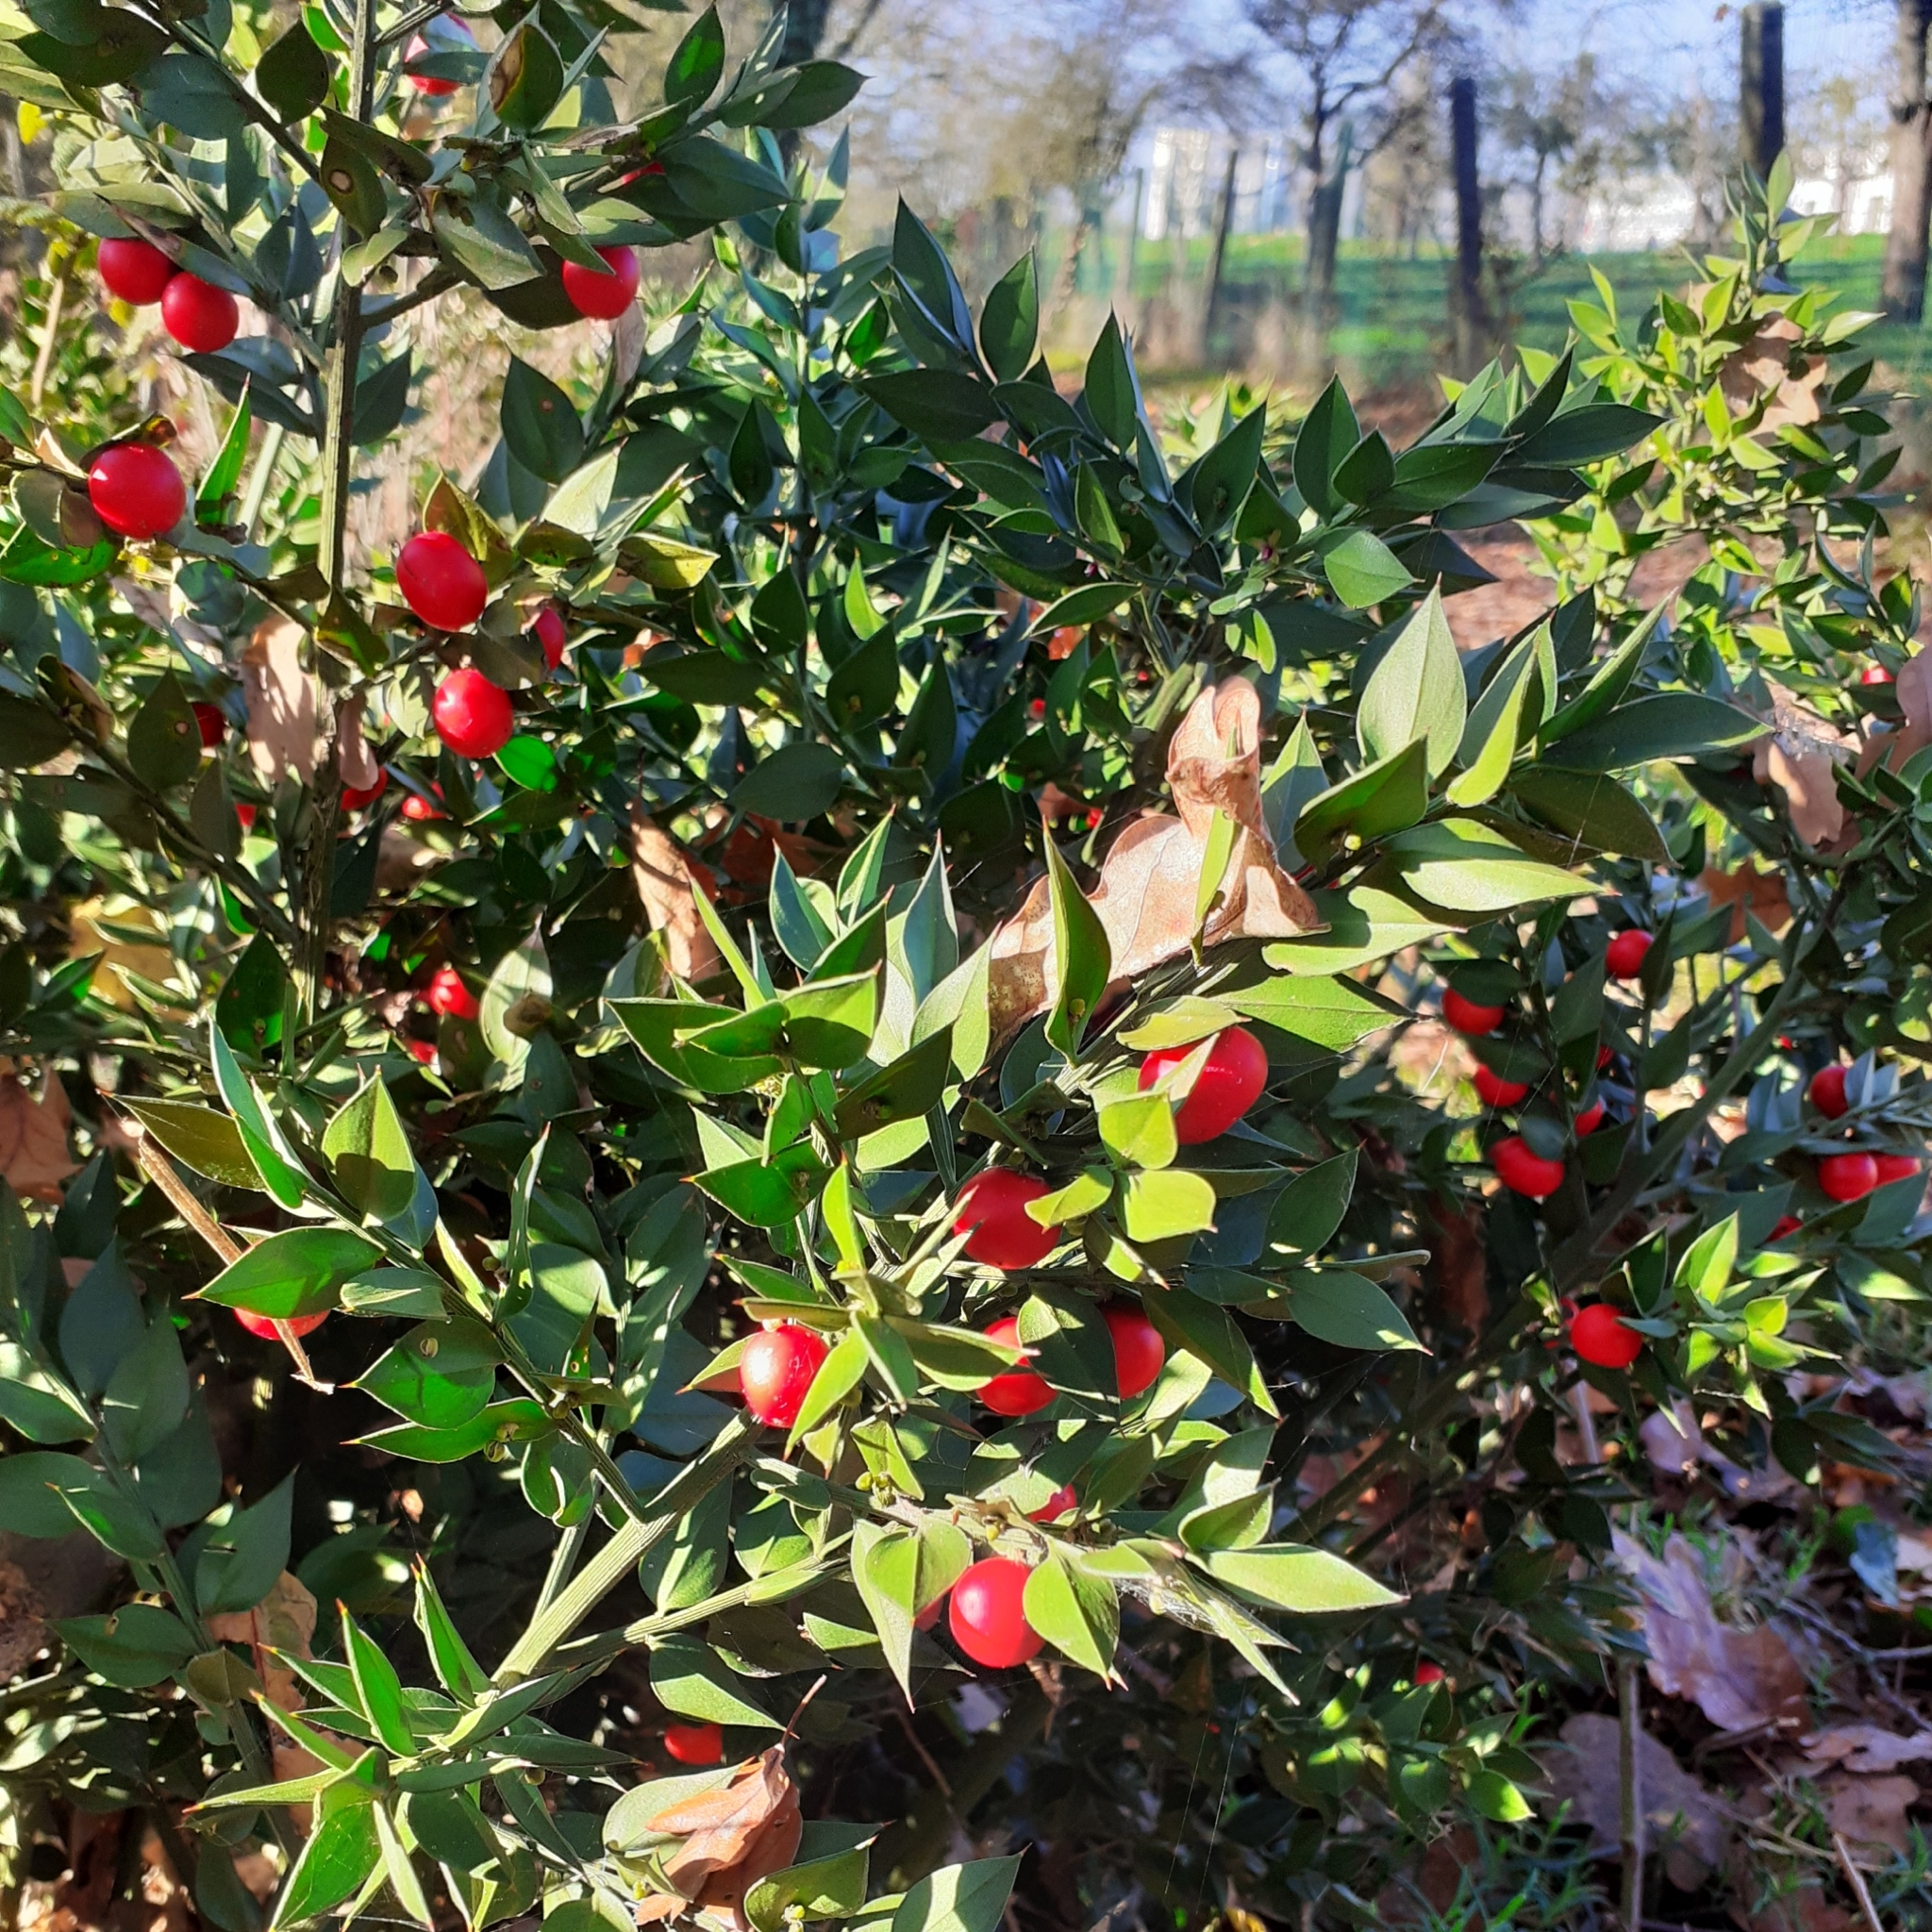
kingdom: Plantae
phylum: Tracheophyta
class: Liliopsida
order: Asparagales
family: Asparagaceae
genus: Ruscus
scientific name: Ruscus aculeatus
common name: Butcher's-broom
